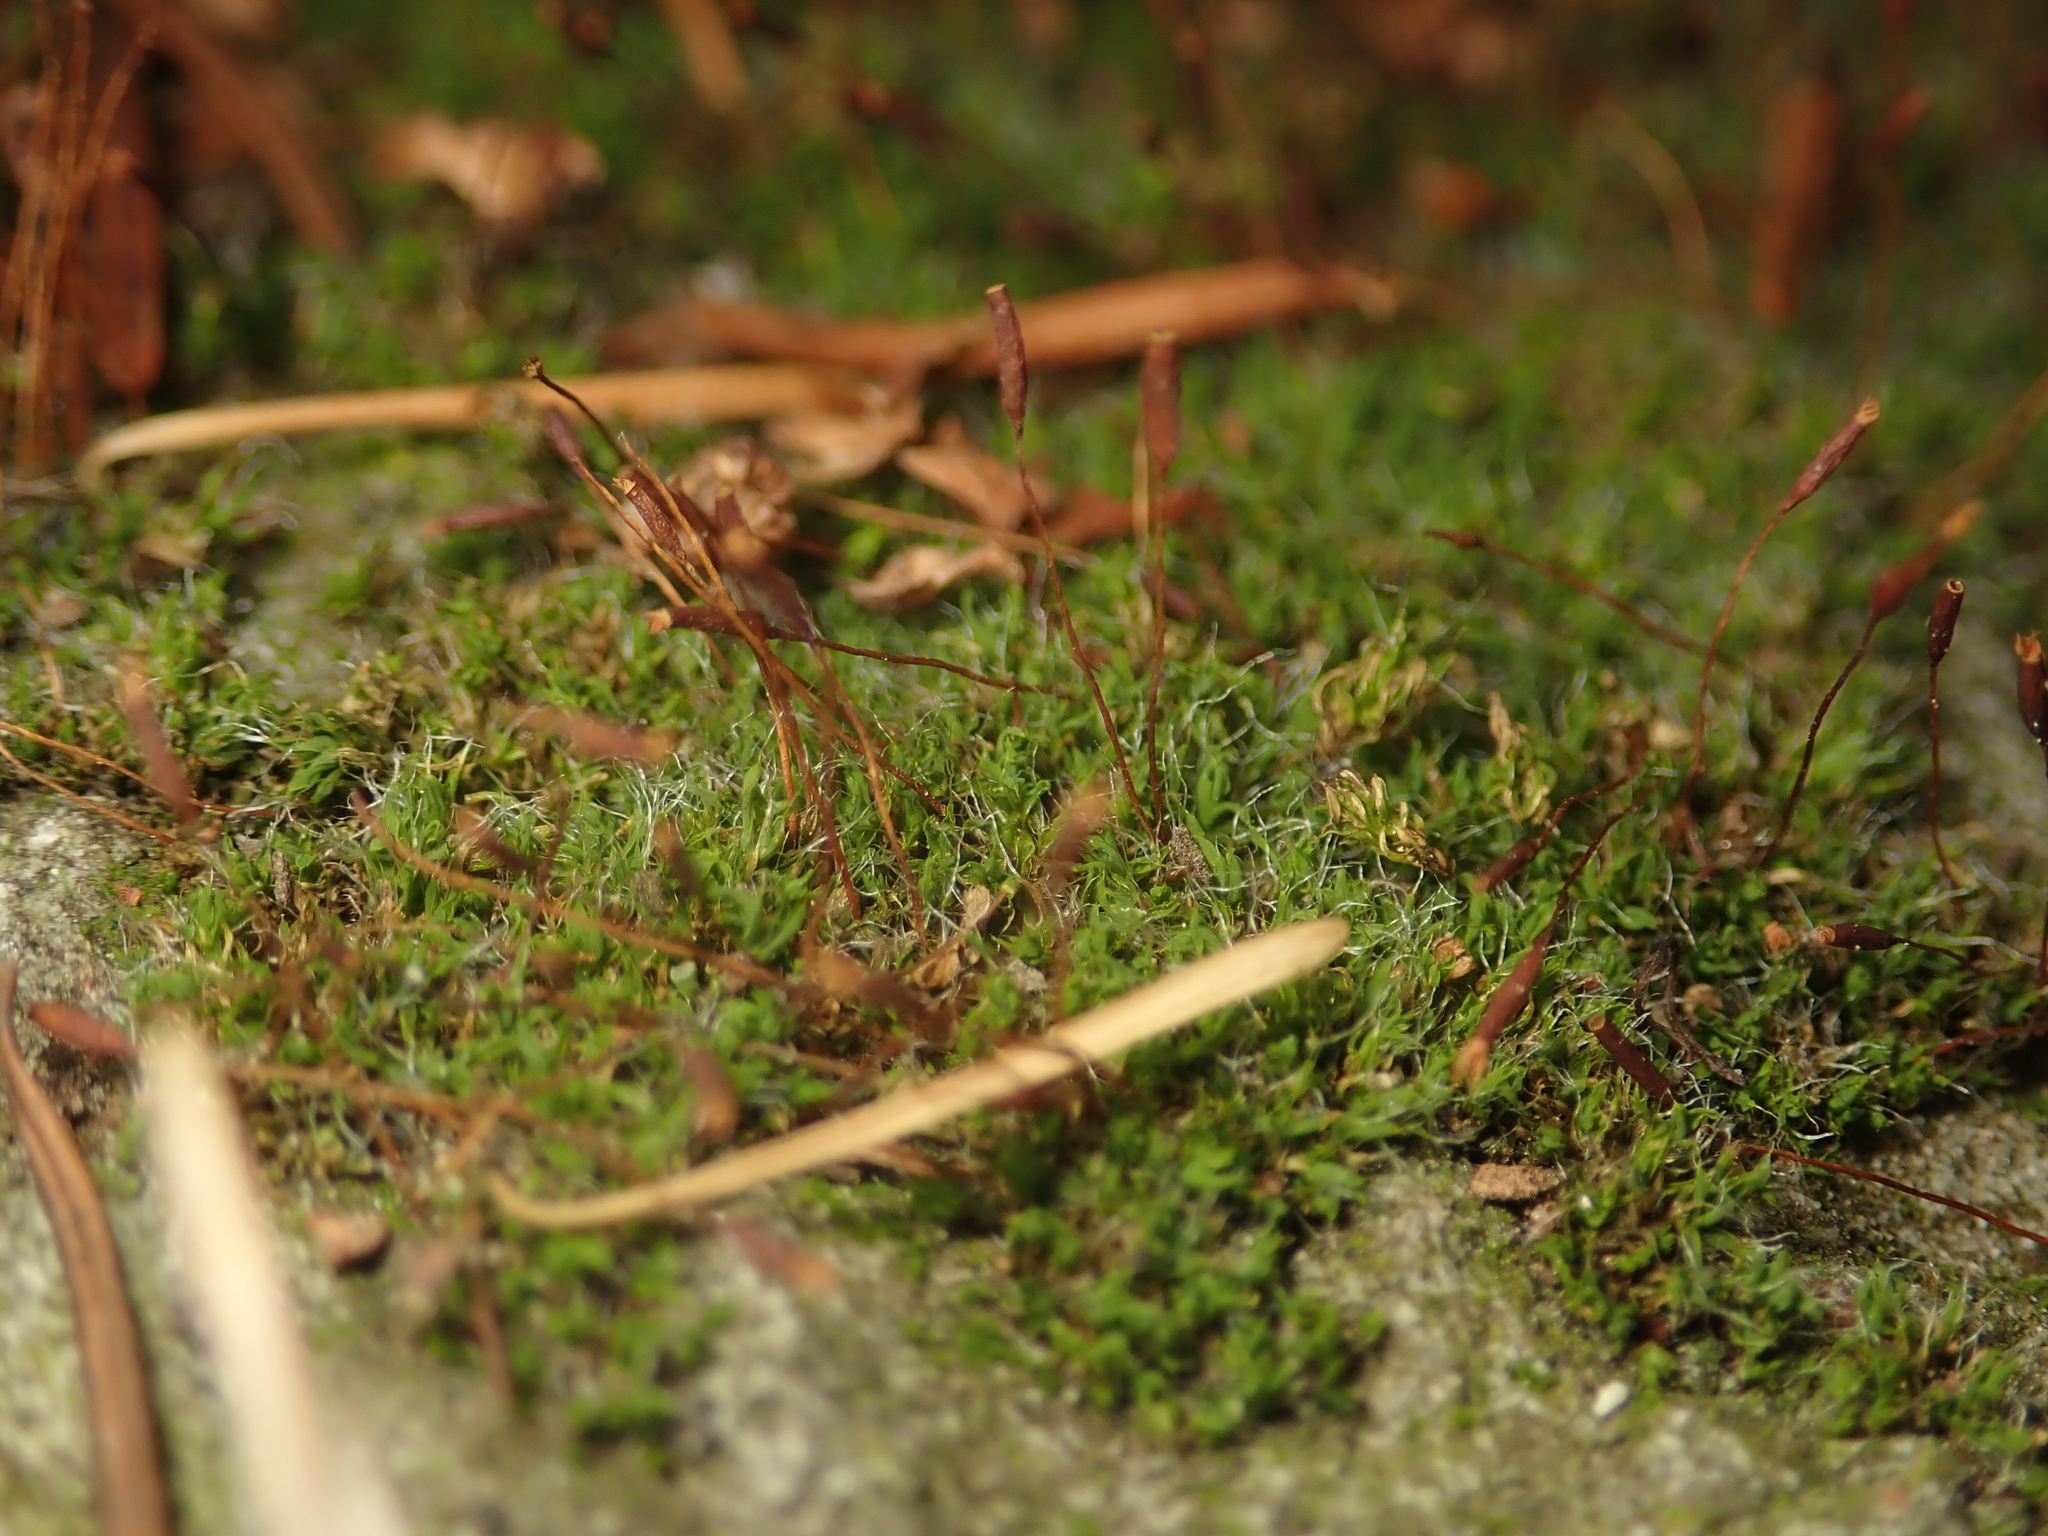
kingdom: Plantae
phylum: Bryophyta
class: Bryopsida
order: Pottiales
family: Pottiaceae
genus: Tortula
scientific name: Tortula muralis
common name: Wall screw-moss
